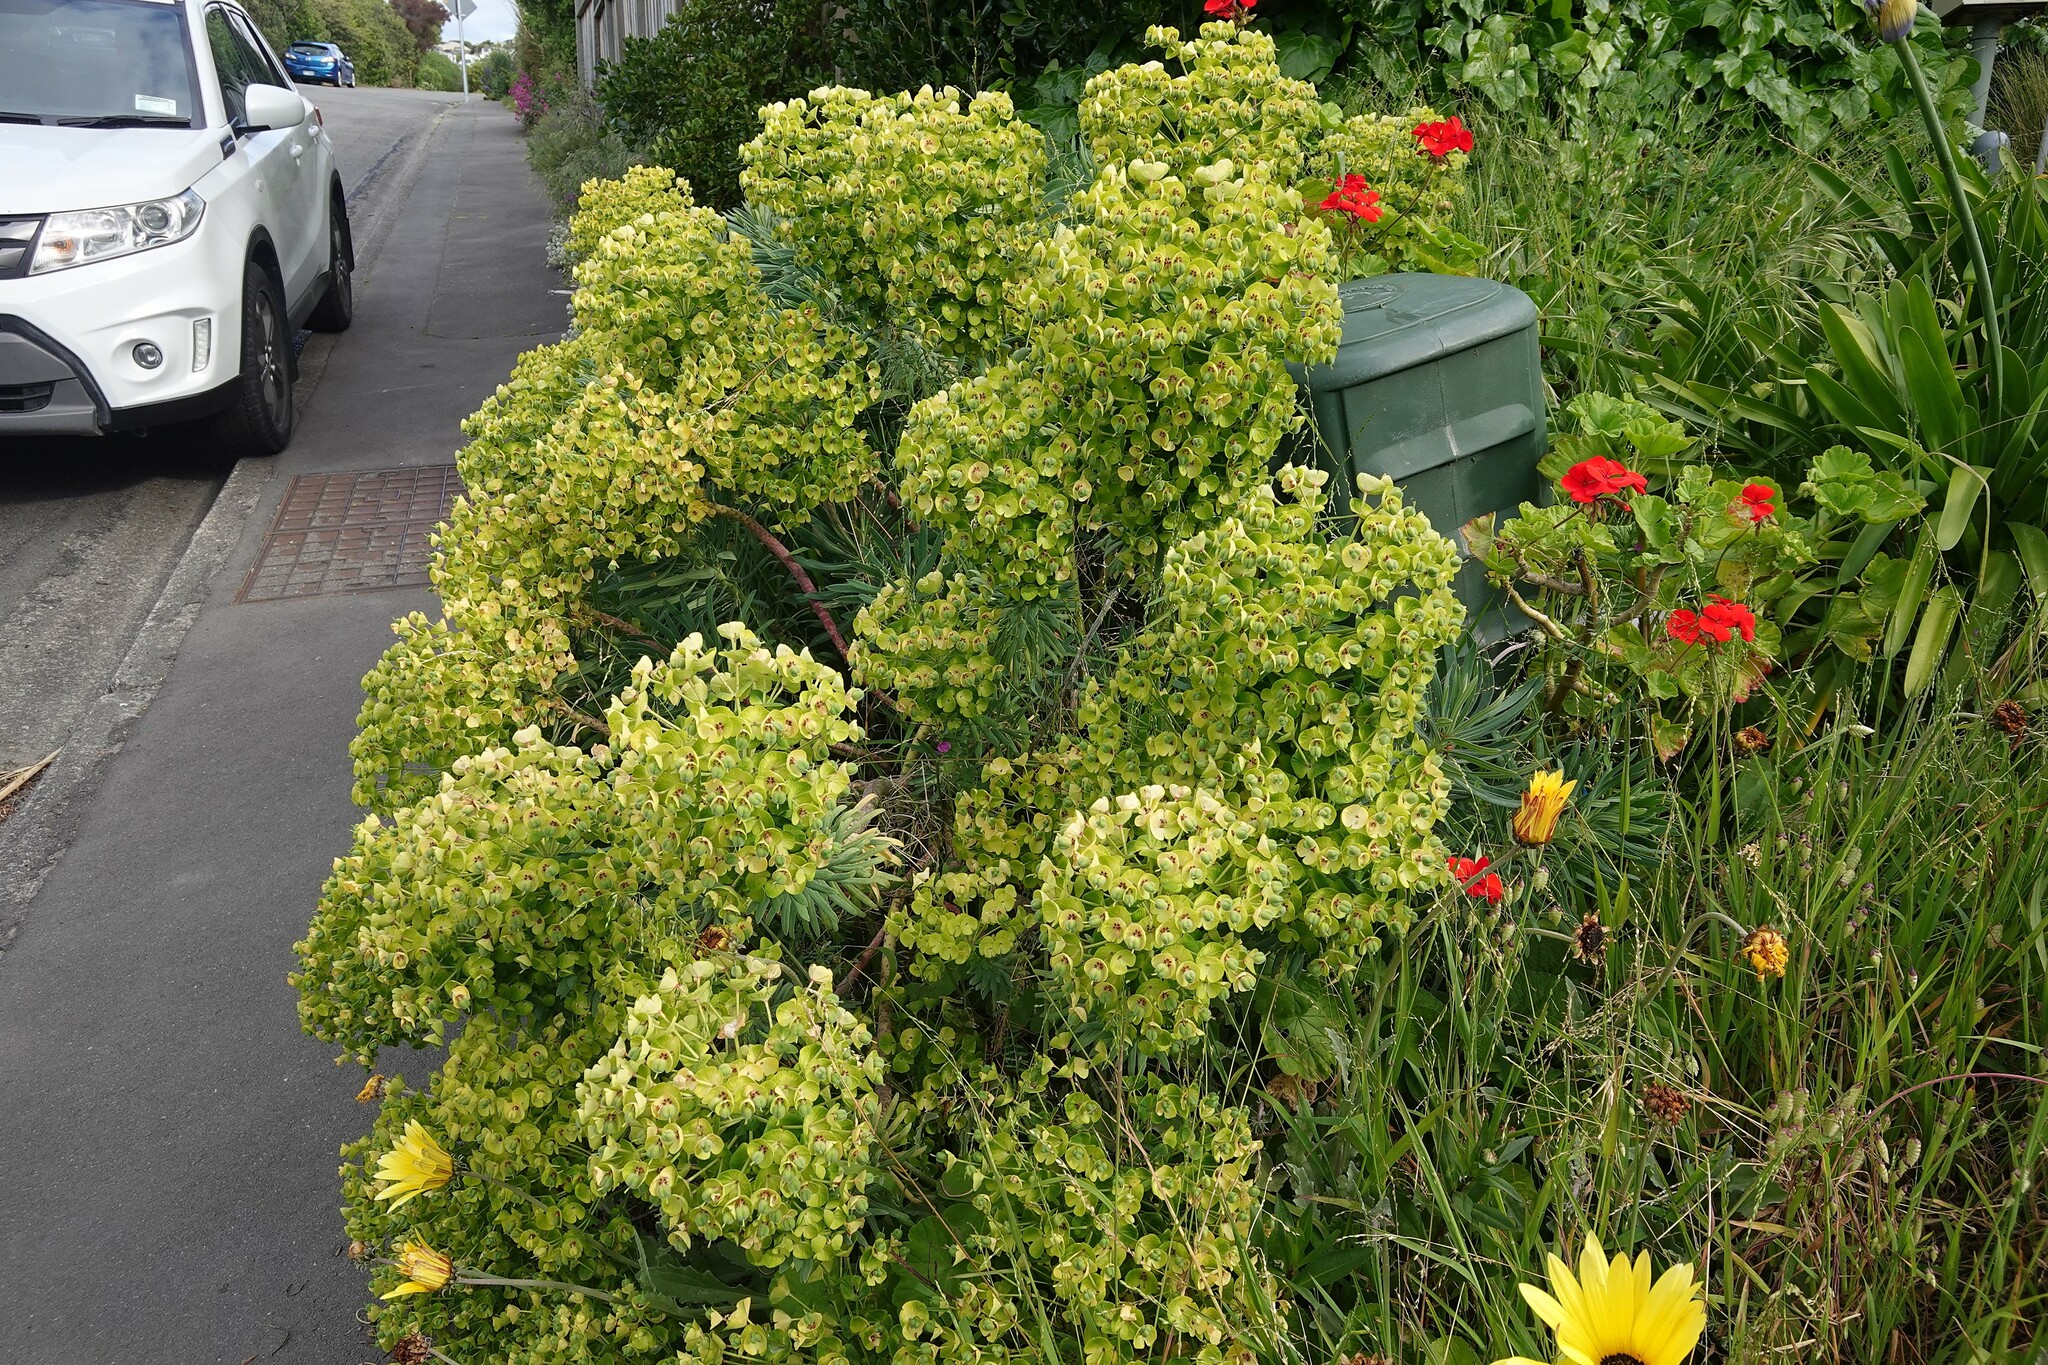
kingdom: Plantae
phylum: Tracheophyta
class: Magnoliopsida
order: Malpighiales
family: Euphorbiaceae
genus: Euphorbia
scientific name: Euphorbia characias
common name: Mediterranean spurge
